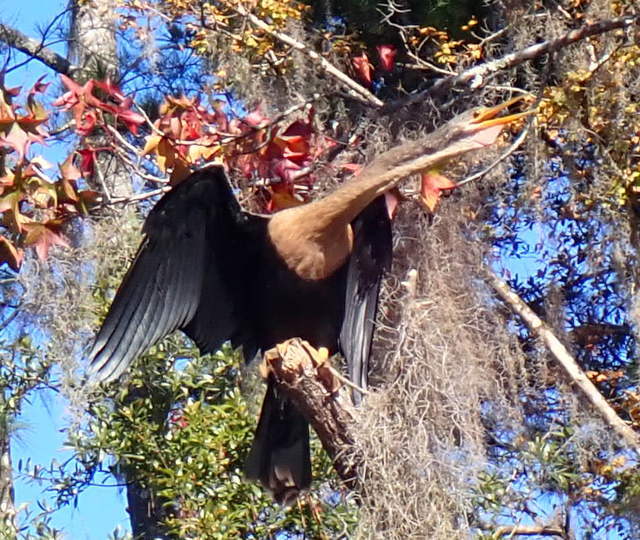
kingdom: Animalia
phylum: Chordata
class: Aves
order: Suliformes
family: Anhingidae
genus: Anhinga
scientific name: Anhinga anhinga
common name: Anhinga
